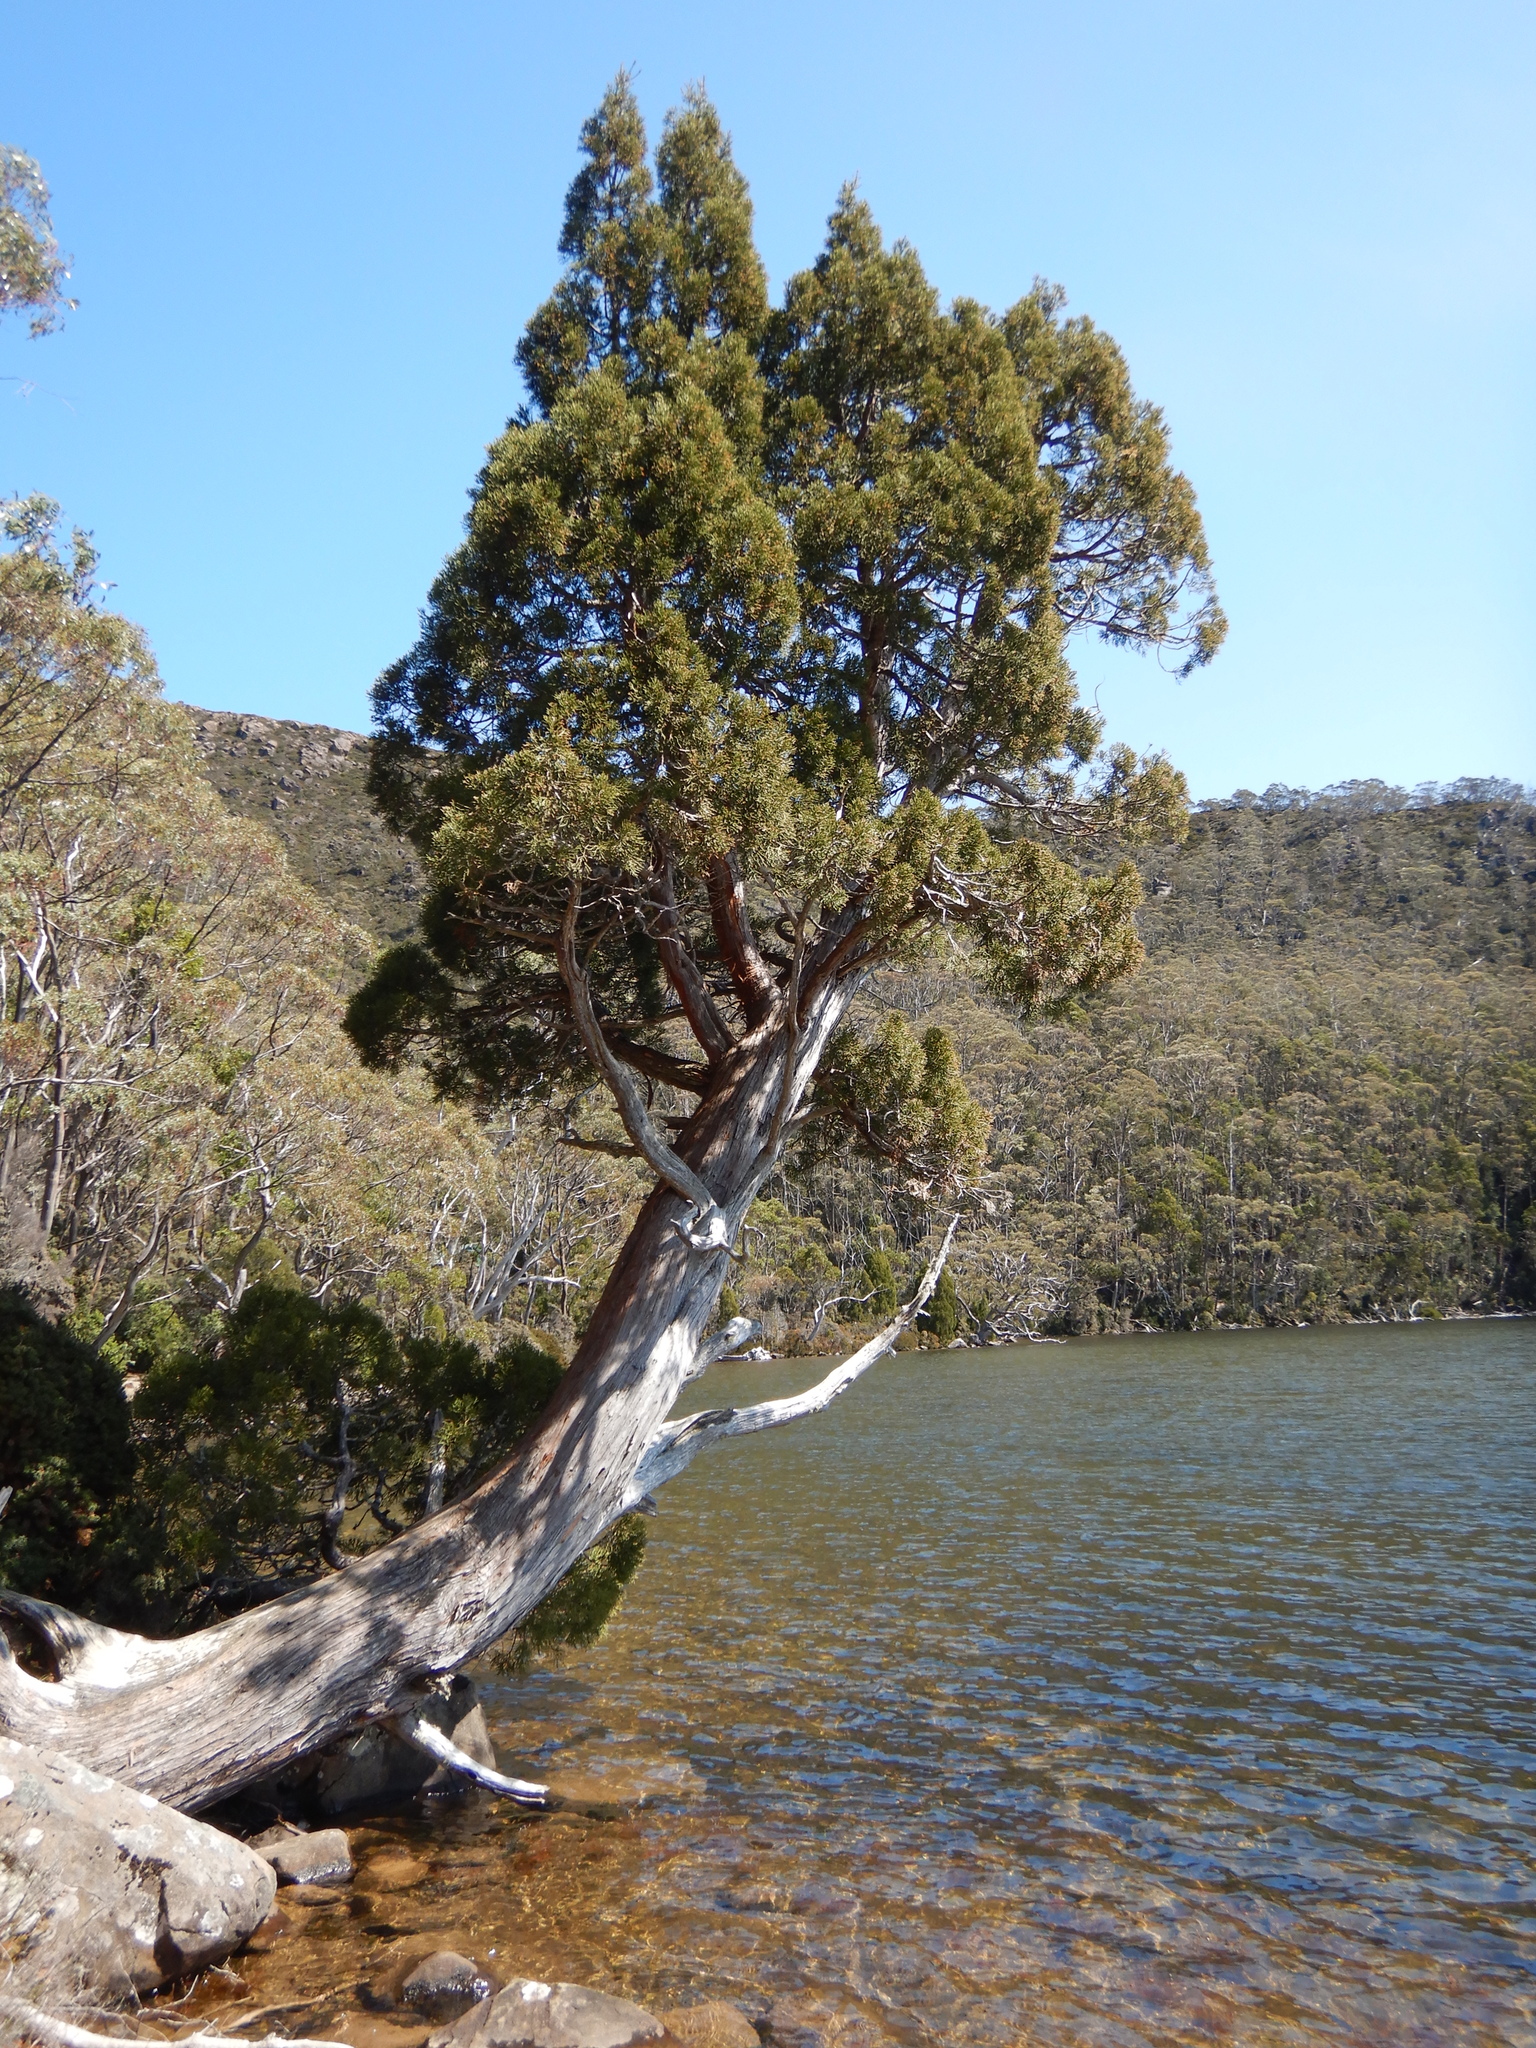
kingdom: Plantae
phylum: Tracheophyta
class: Pinopsida
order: Pinales
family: Cupressaceae
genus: Athrotaxis
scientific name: Athrotaxis cupressoides
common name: Tasmanian pencil pine
